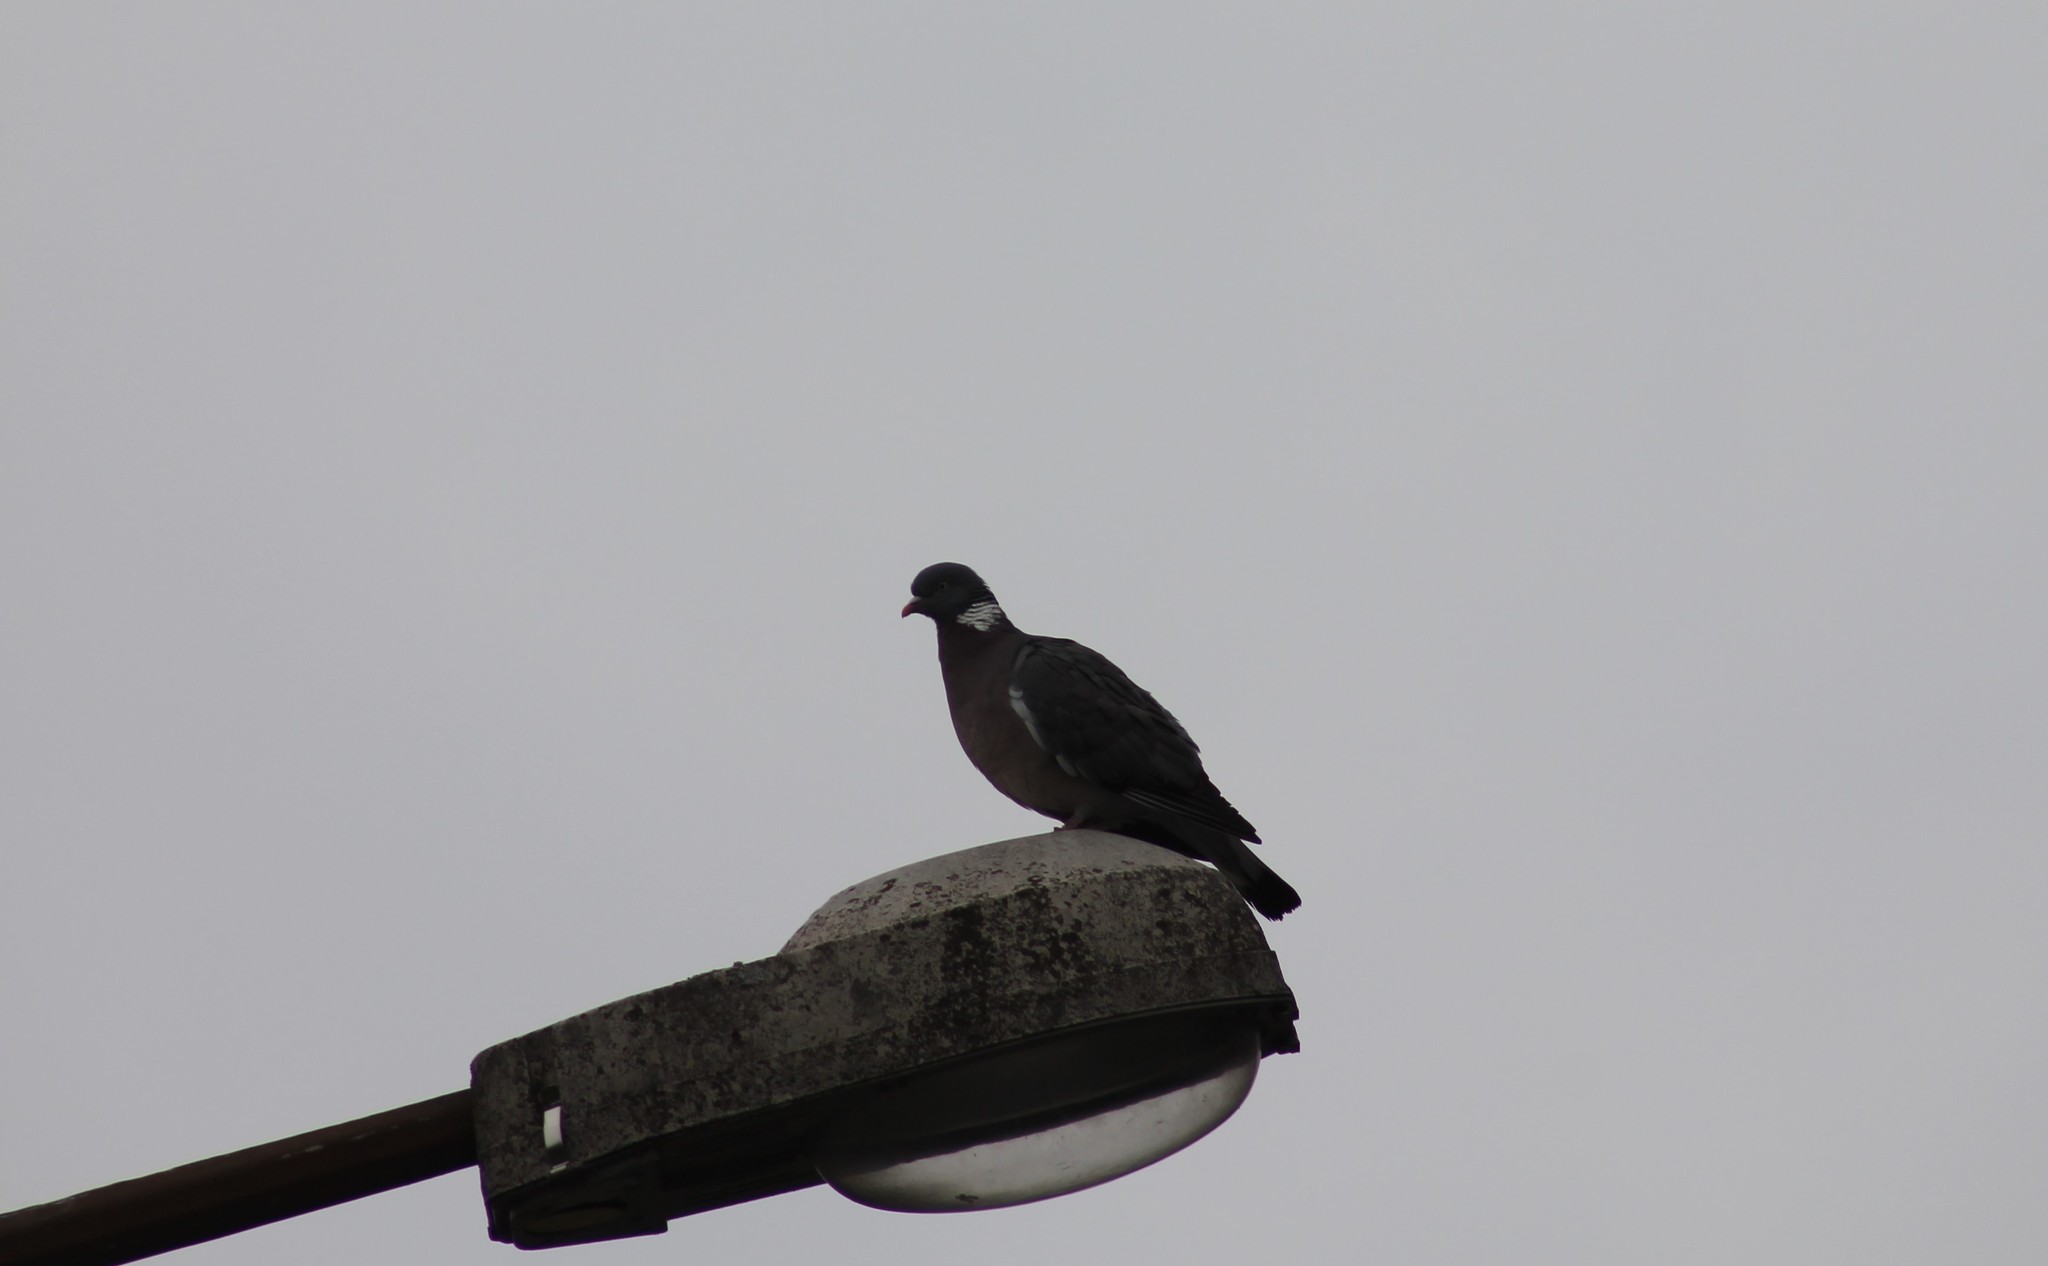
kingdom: Animalia
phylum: Chordata
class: Aves
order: Columbiformes
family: Columbidae
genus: Columba
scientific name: Columba palumbus
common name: Common wood pigeon
